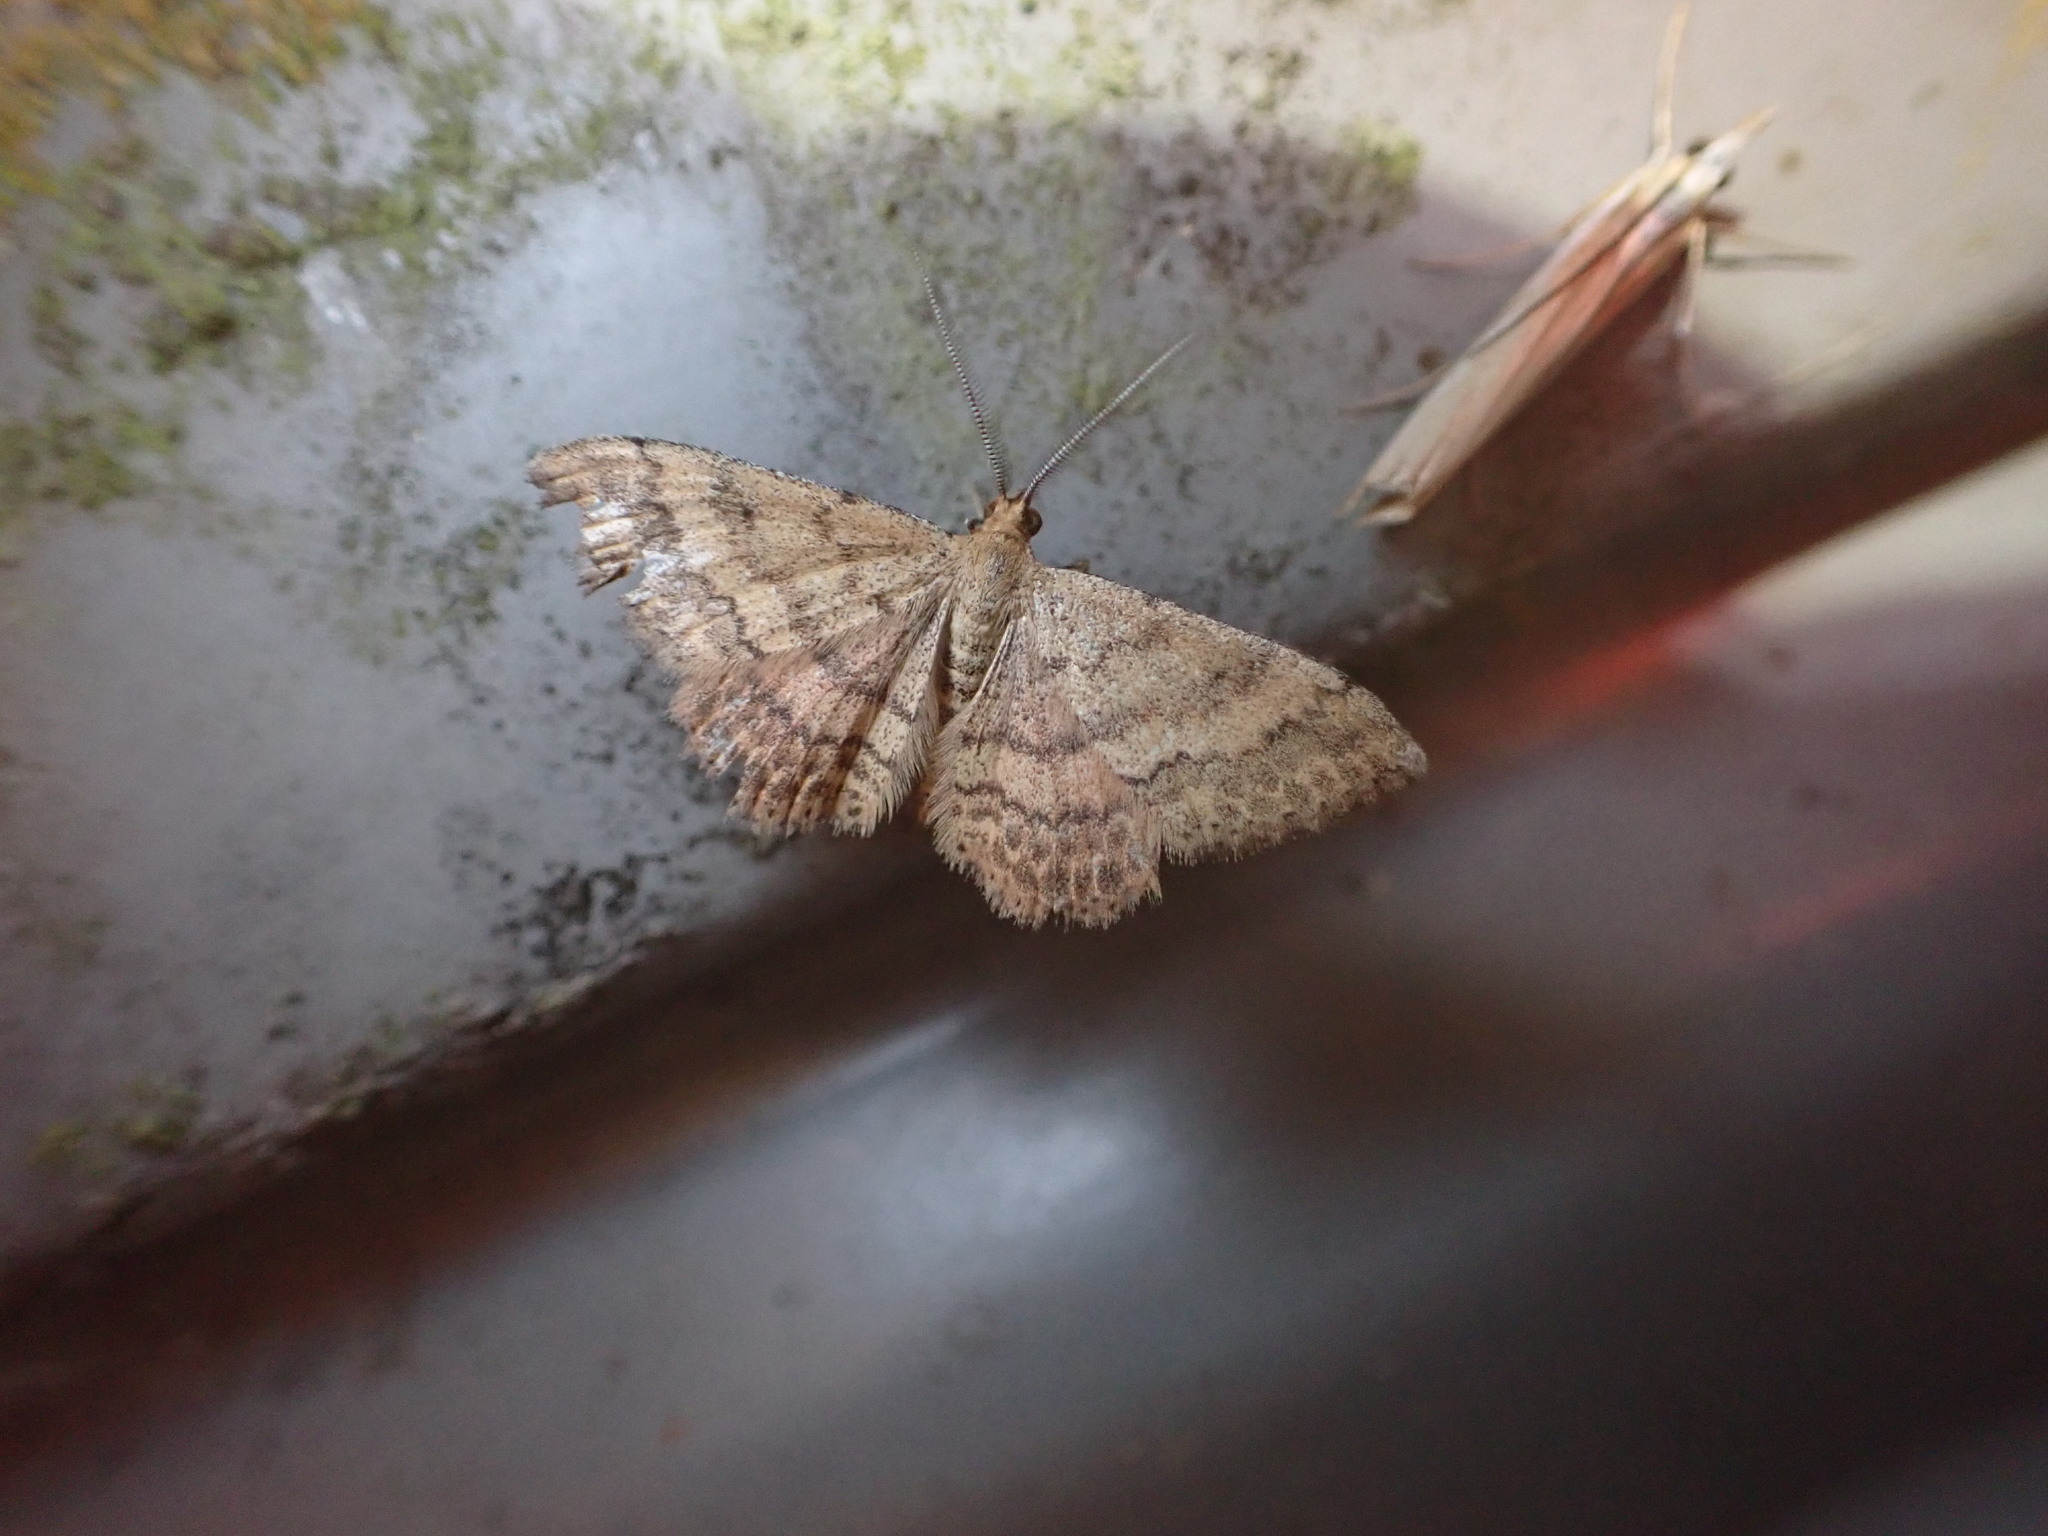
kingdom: Animalia
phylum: Arthropoda
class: Insecta
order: Lepidoptera
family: Geometridae
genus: Scopula
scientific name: Scopula rubraria
